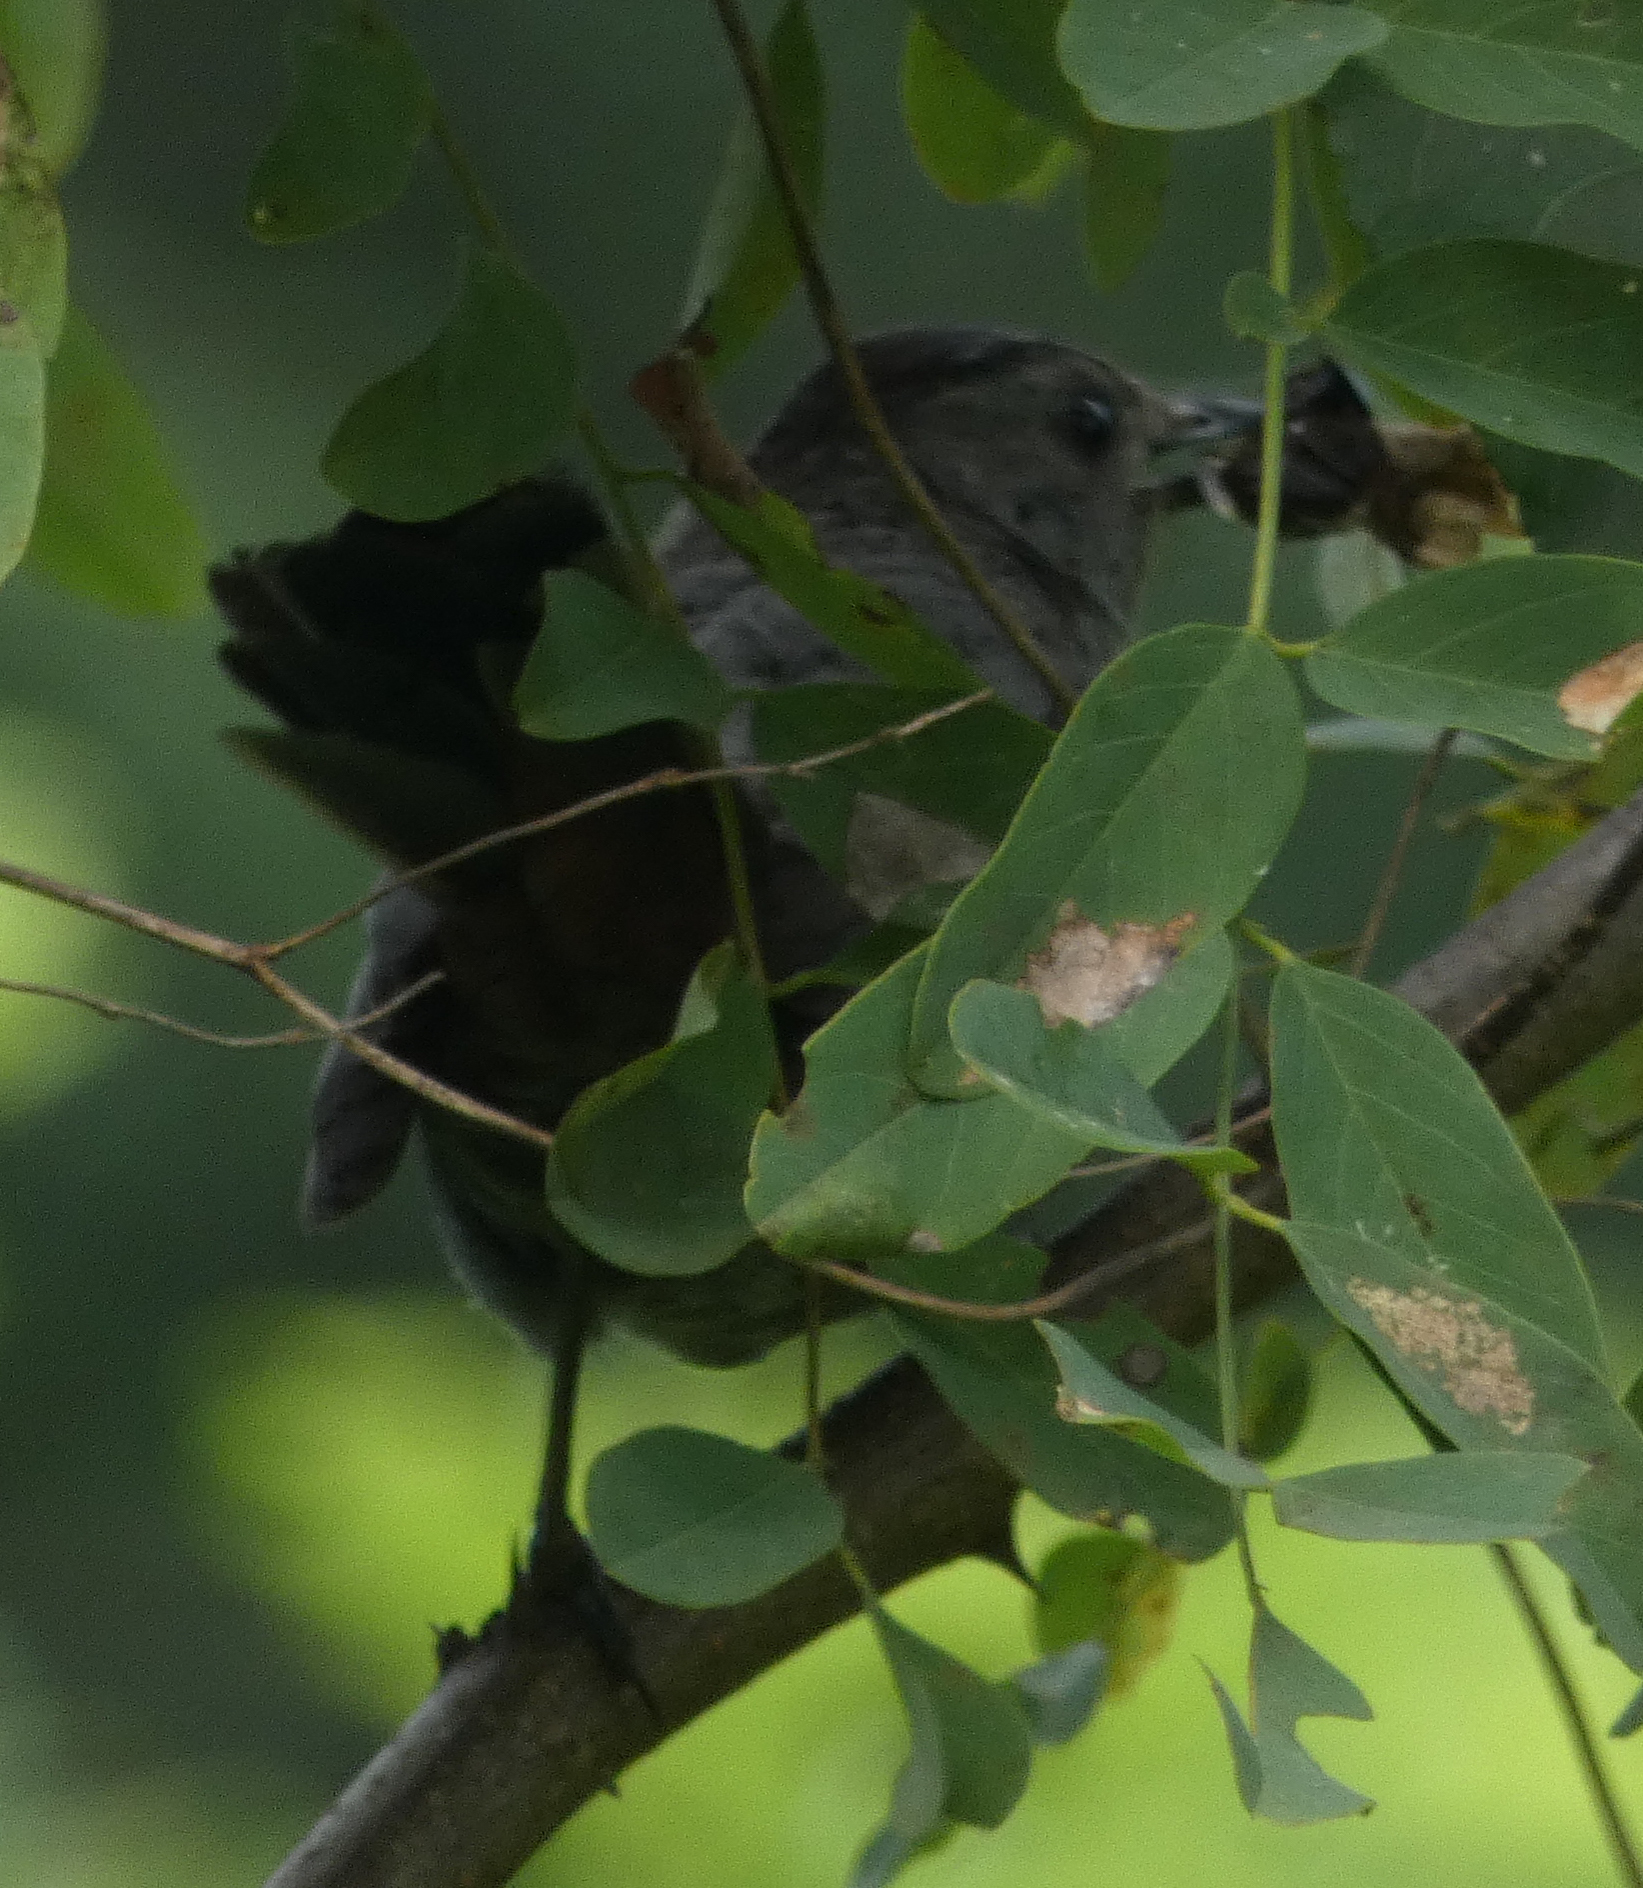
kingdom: Animalia
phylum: Chordata
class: Aves
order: Passeriformes
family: Mimidae
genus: Dumetella
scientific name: Dumetella carolinensis
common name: Gray catbird
